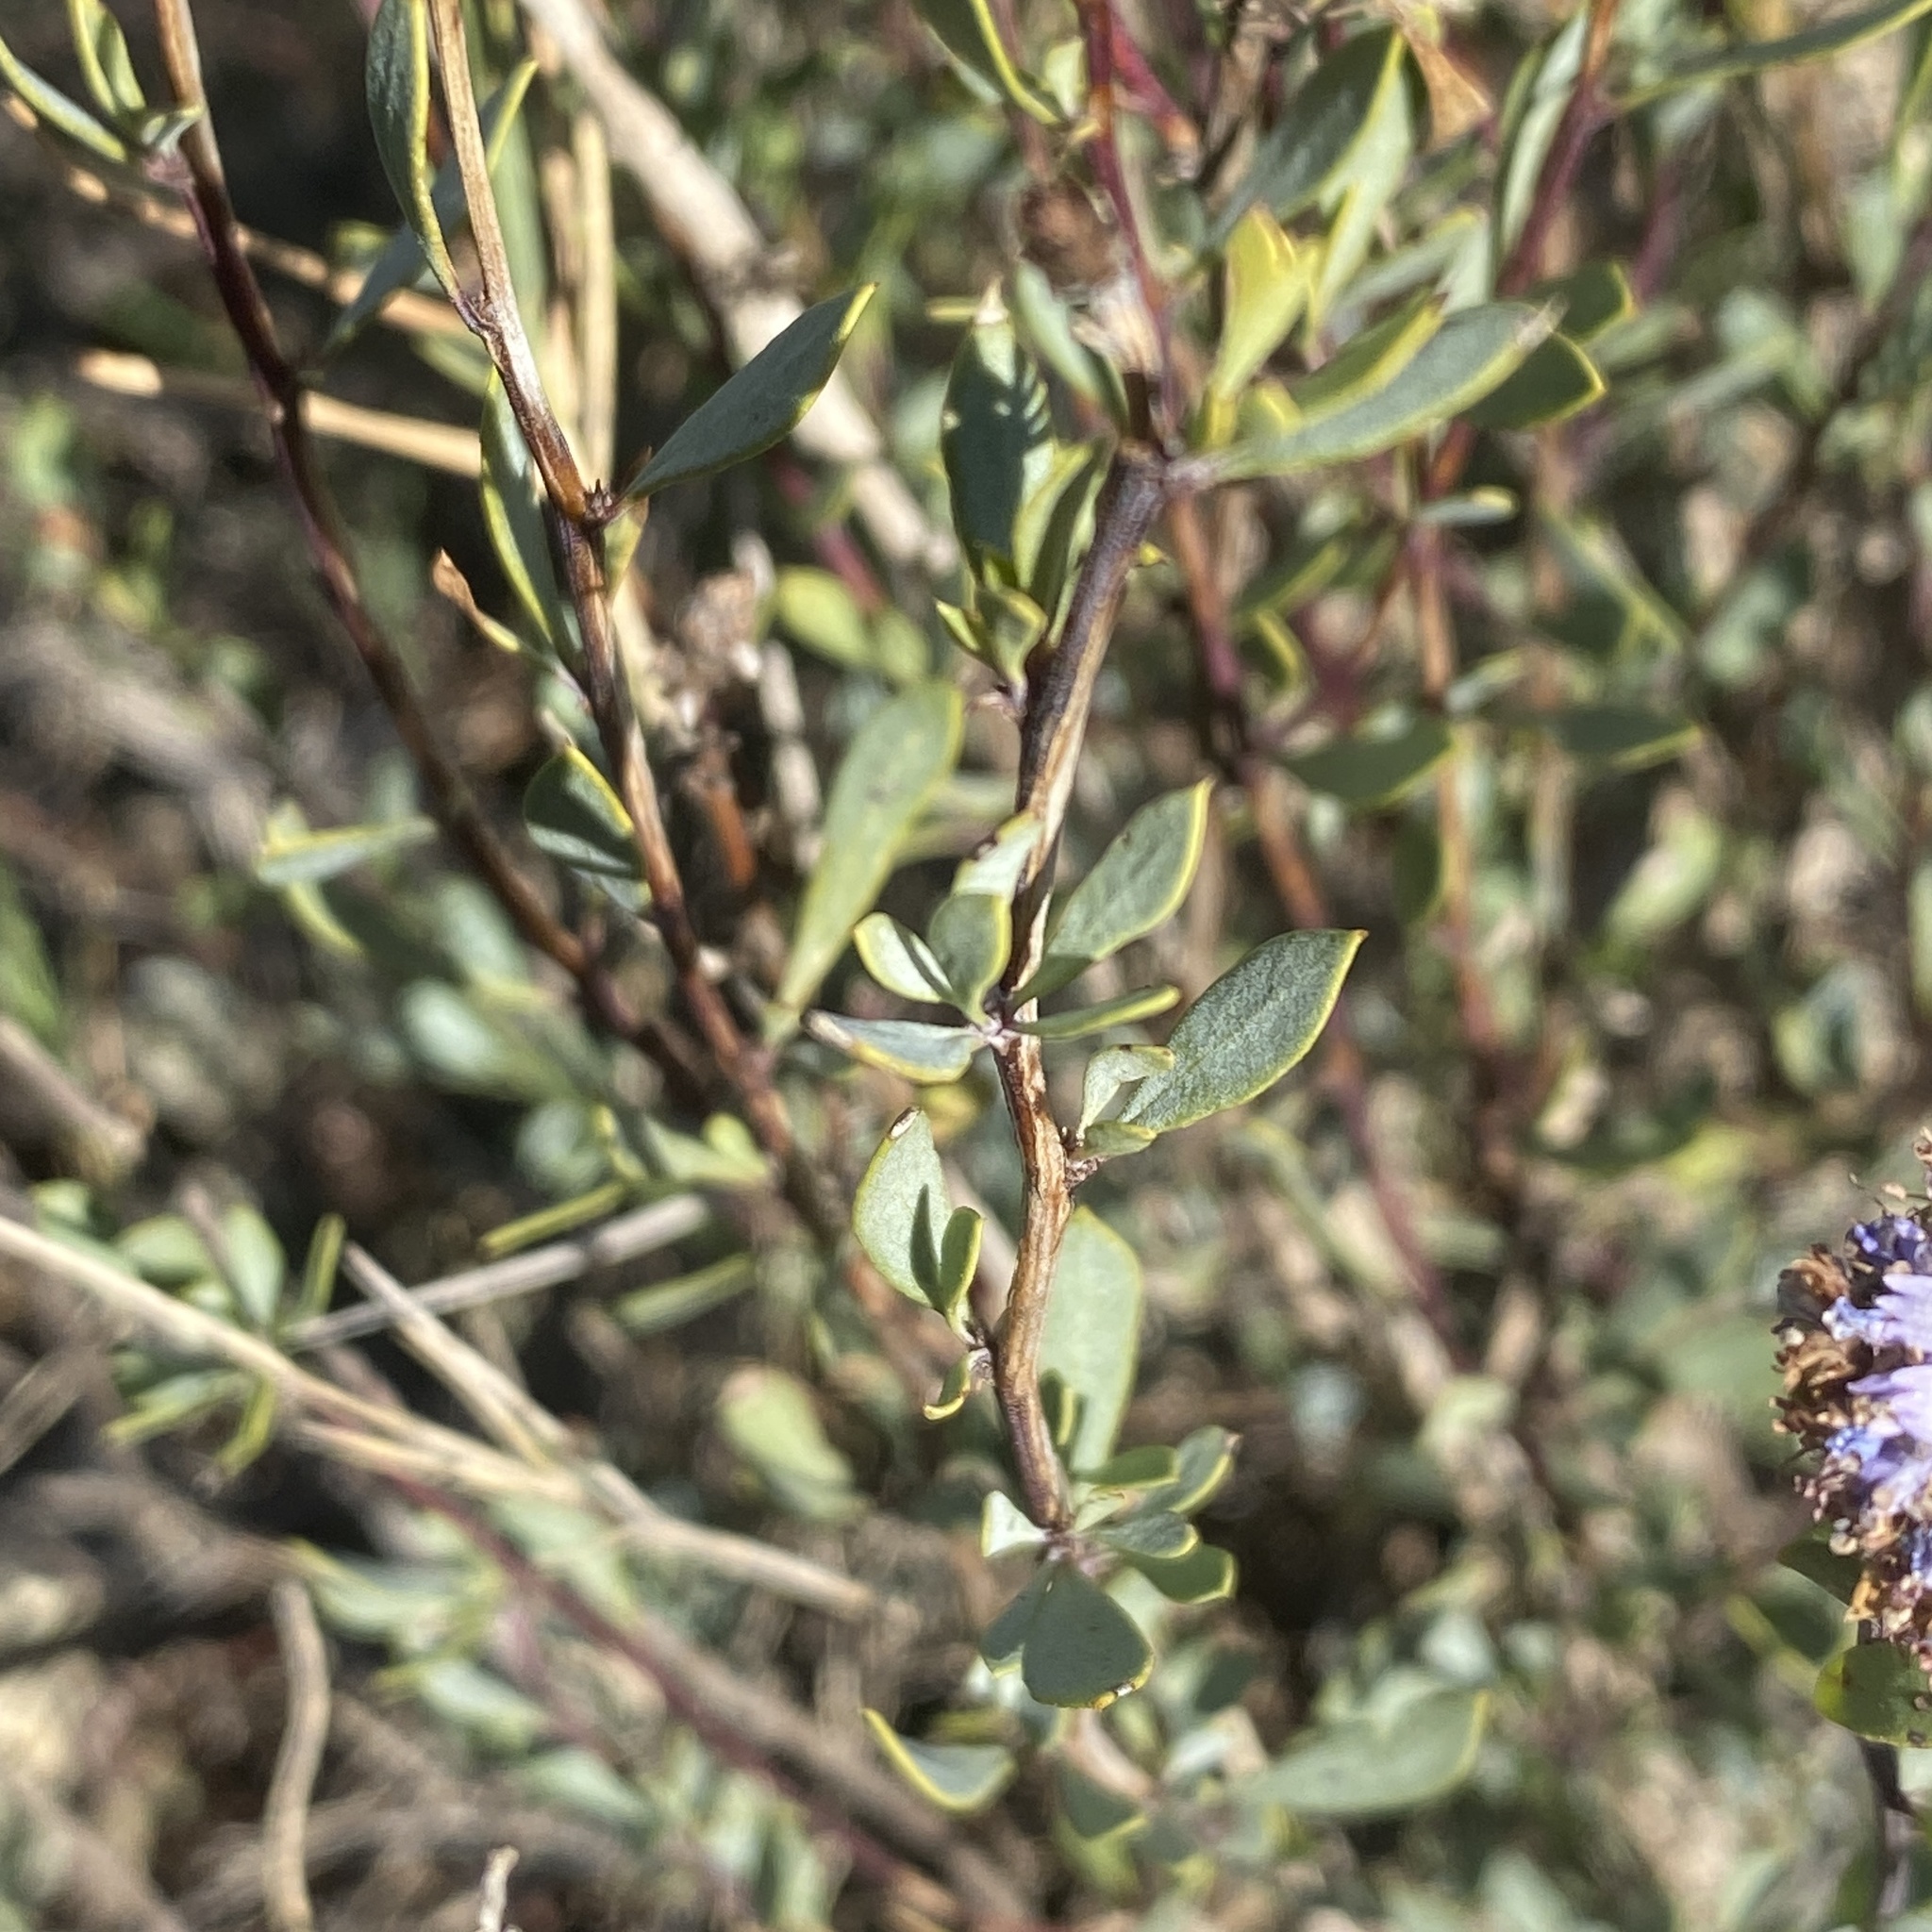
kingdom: Plantae
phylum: Tracheophyta
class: Magnoliopsida
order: Lamiales
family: Plantaginaceae
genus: Globularia
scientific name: Globularia alypum
